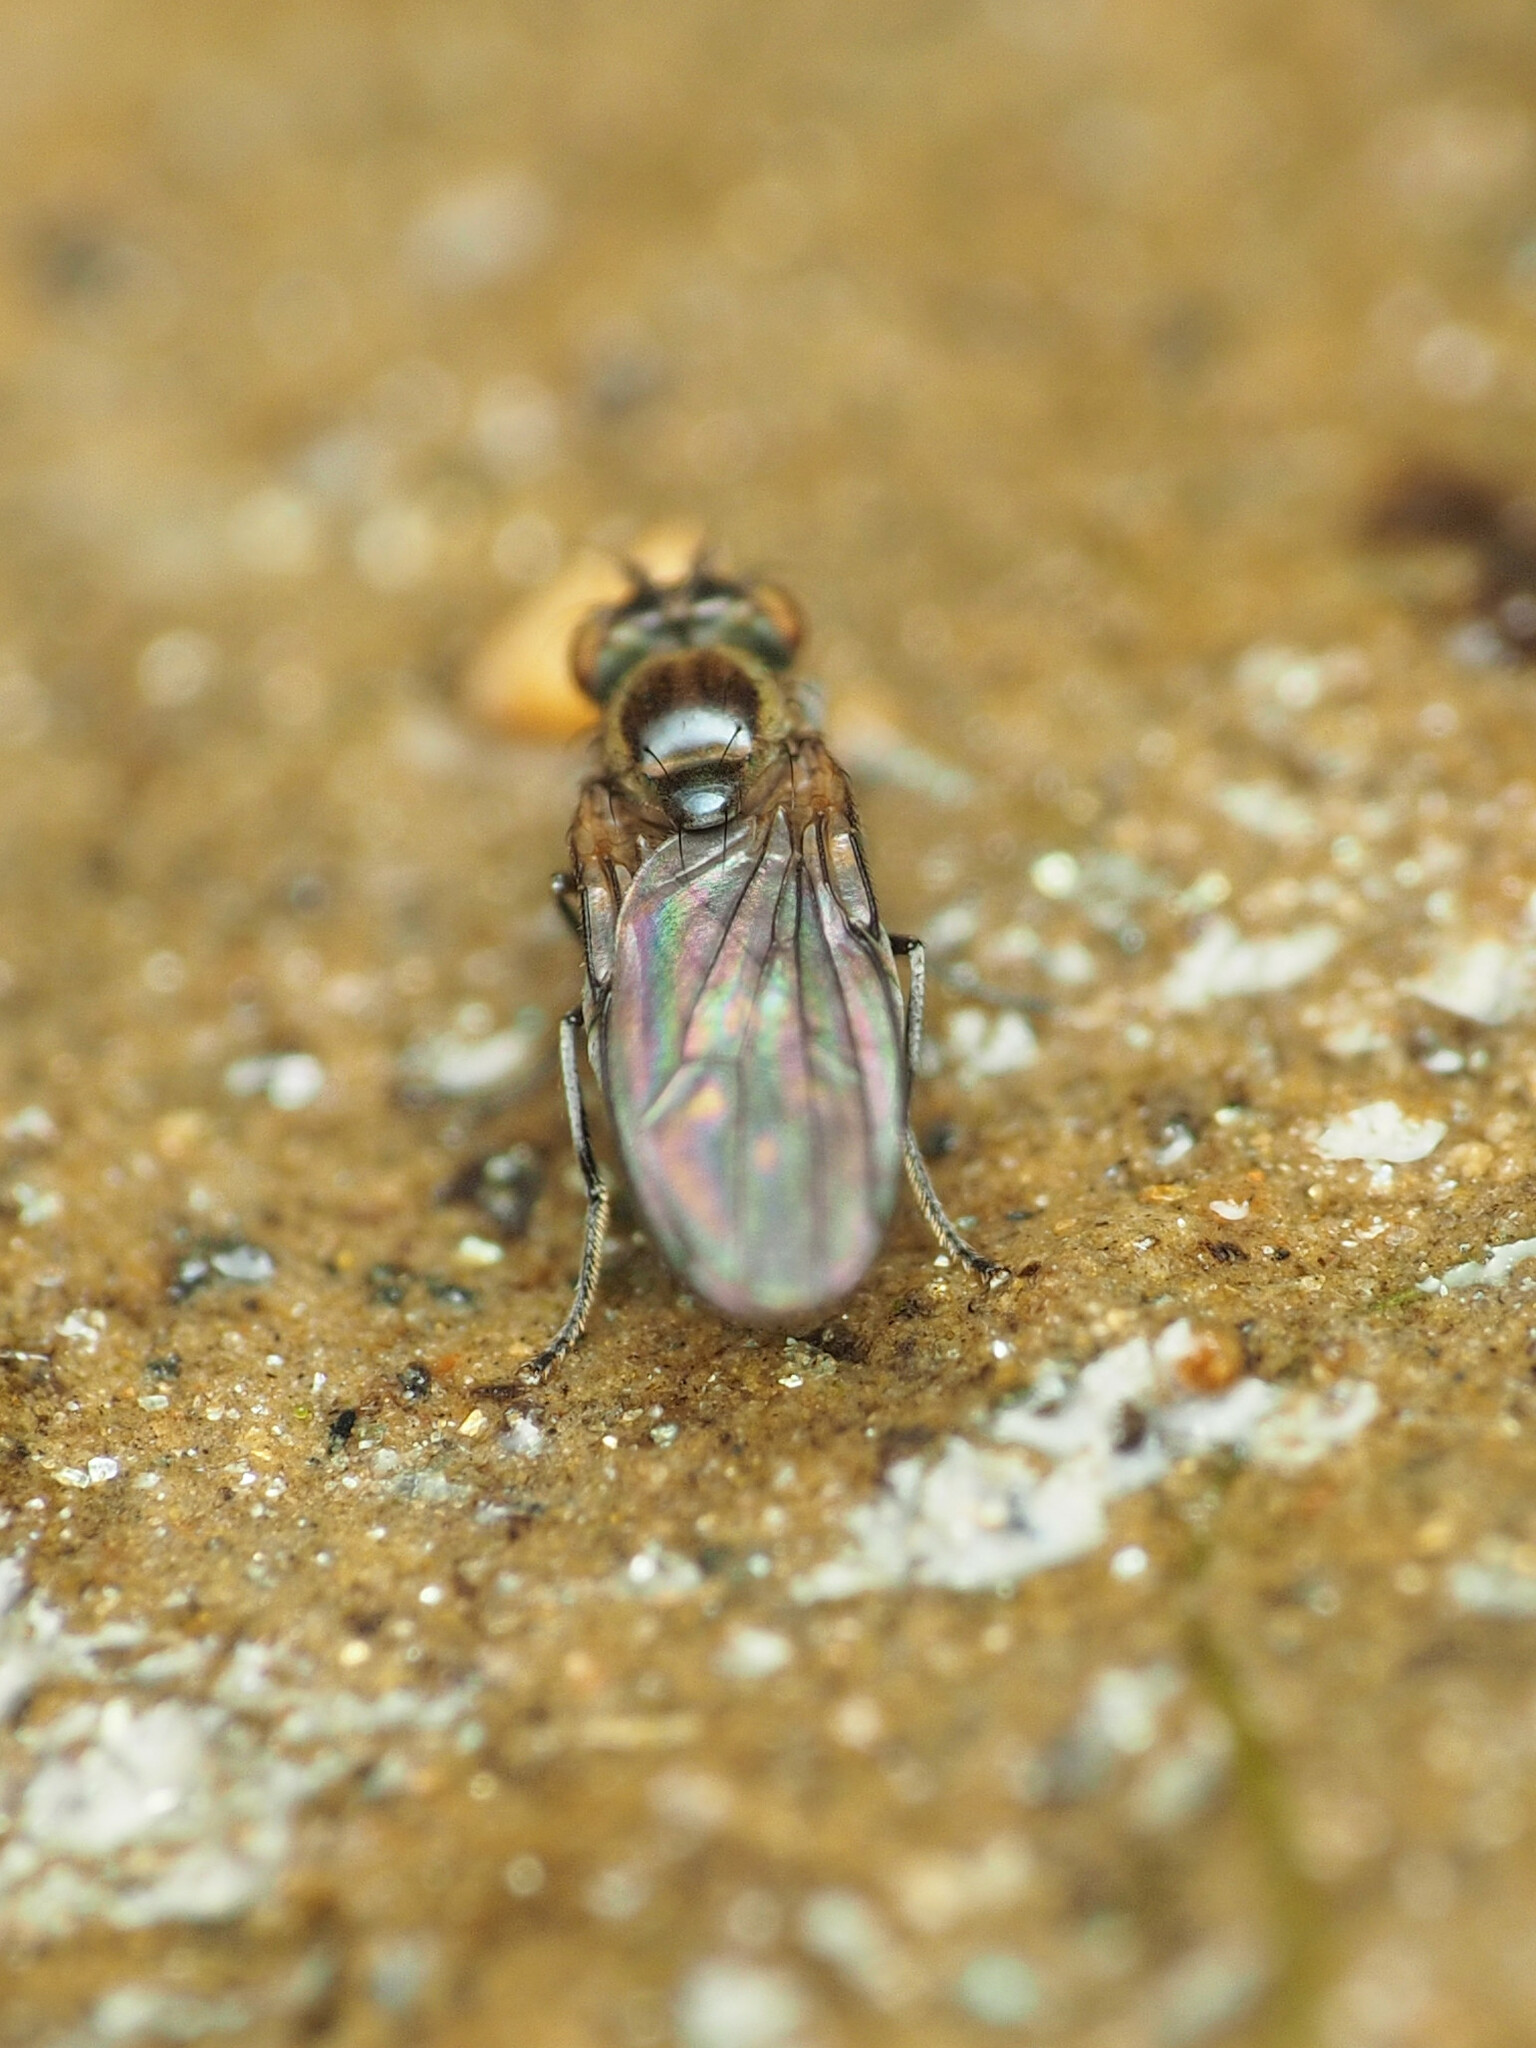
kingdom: Animalia
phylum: Arthropoda
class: Insecta
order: Diptera
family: Ephydridae
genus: Scatella
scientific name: Scatella favillacea
